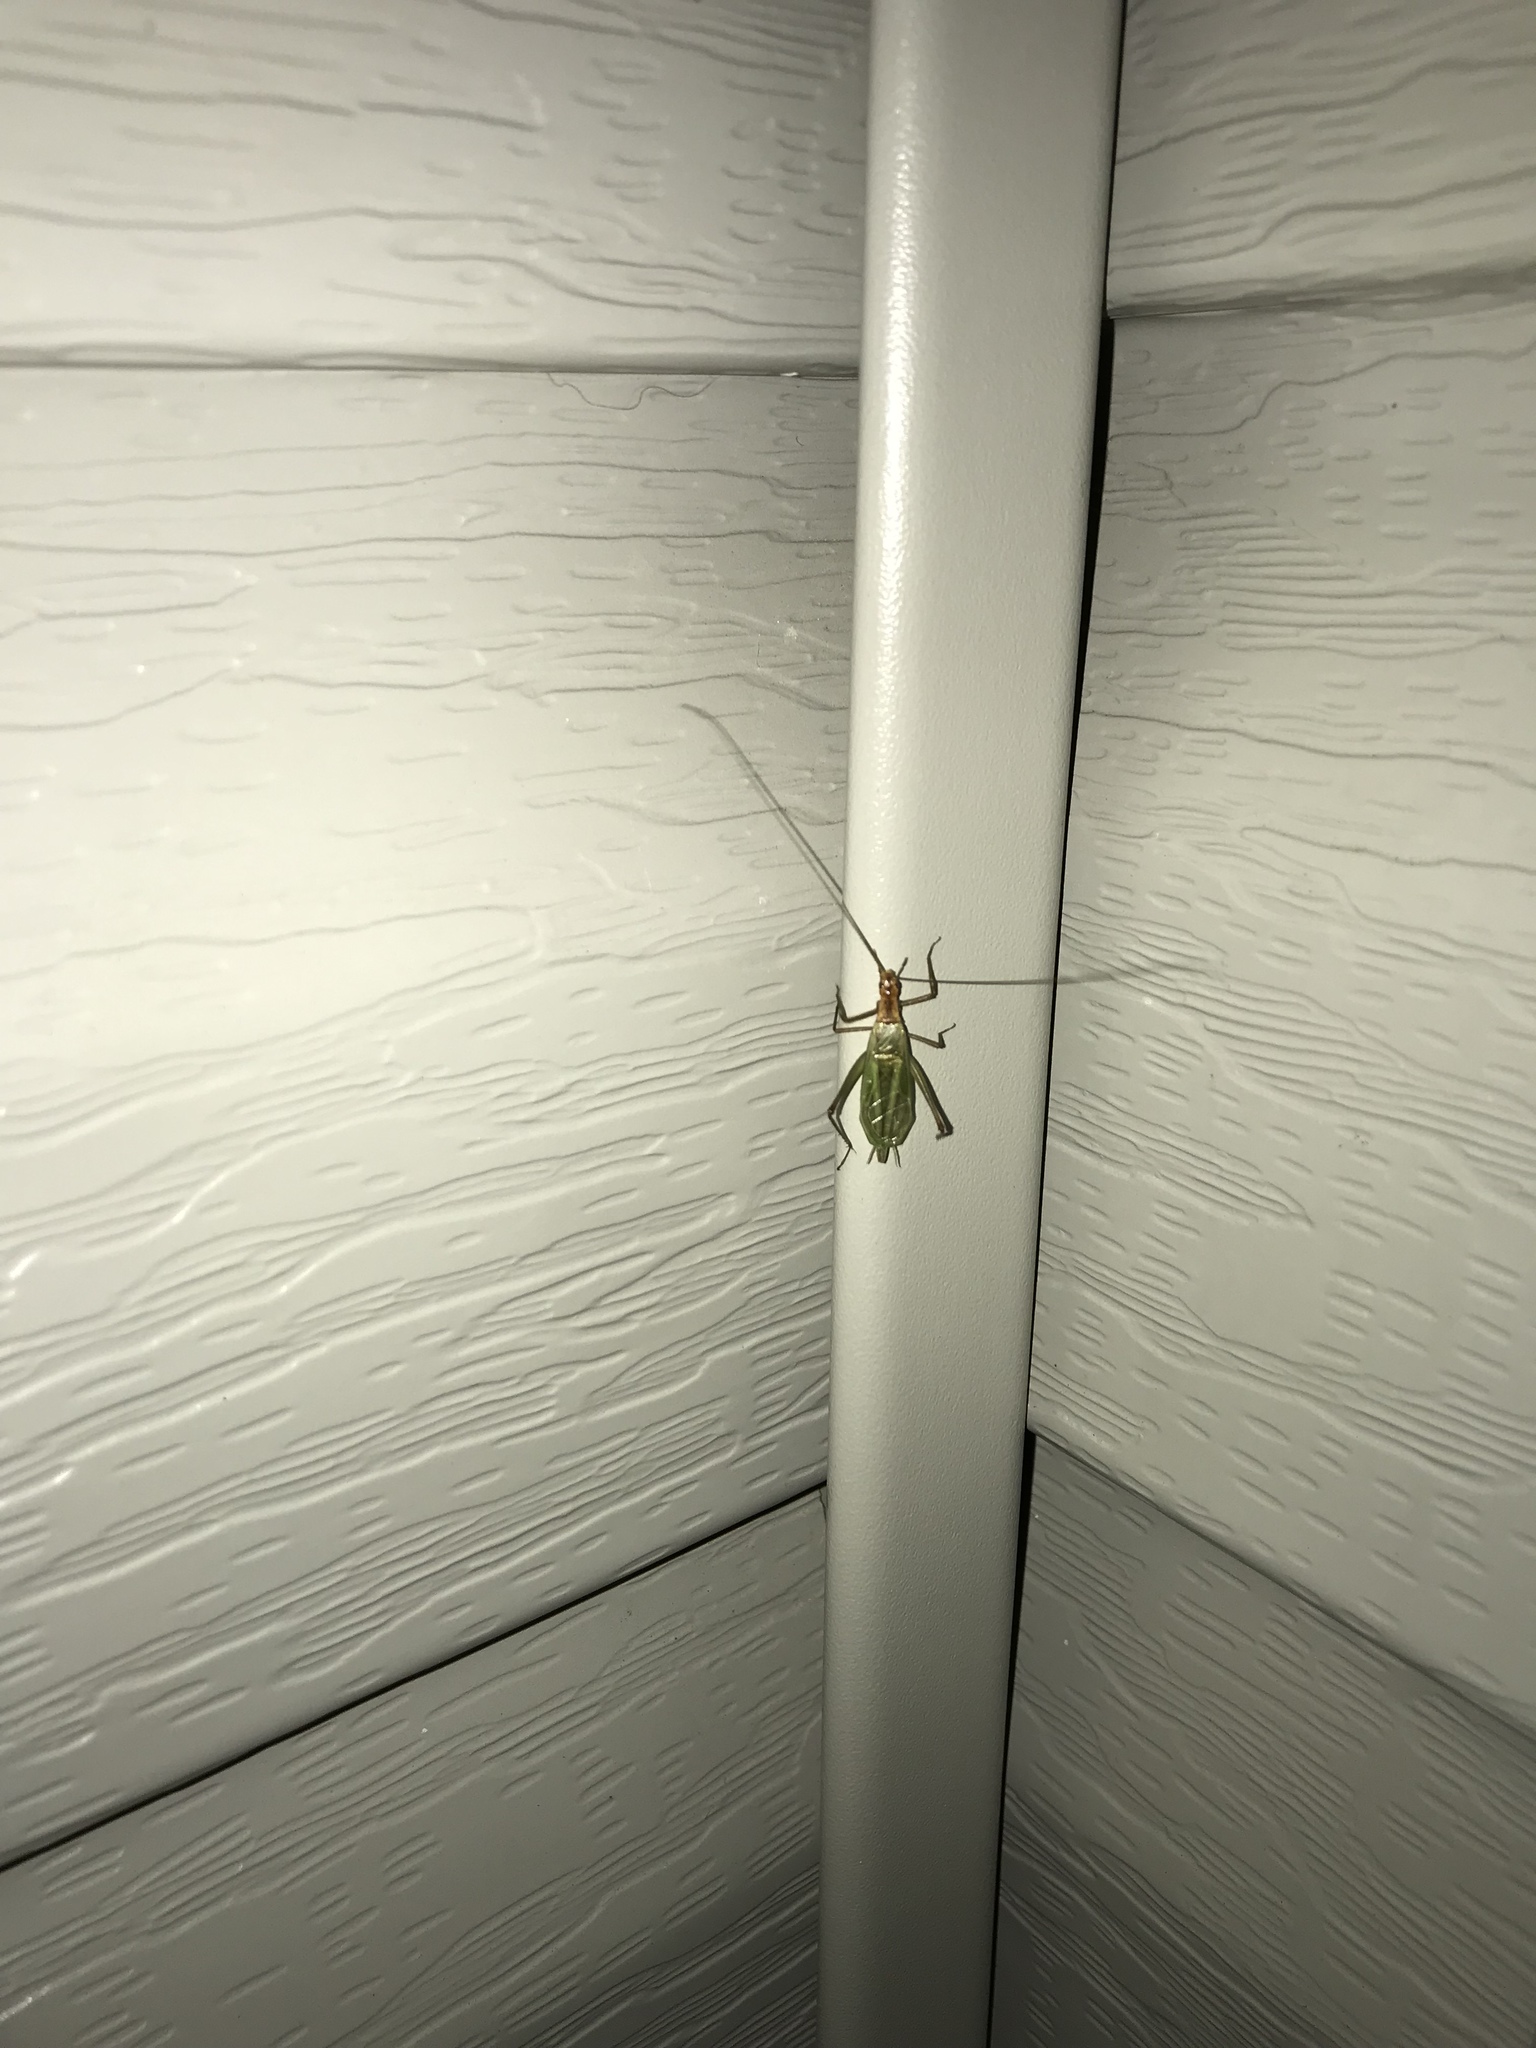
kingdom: Animalia
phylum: Arthropoda
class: Insecta
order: Orthoptera
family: Gryllidae
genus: Oecanthus
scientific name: Oecanthus pini
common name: Pine tree cricket
